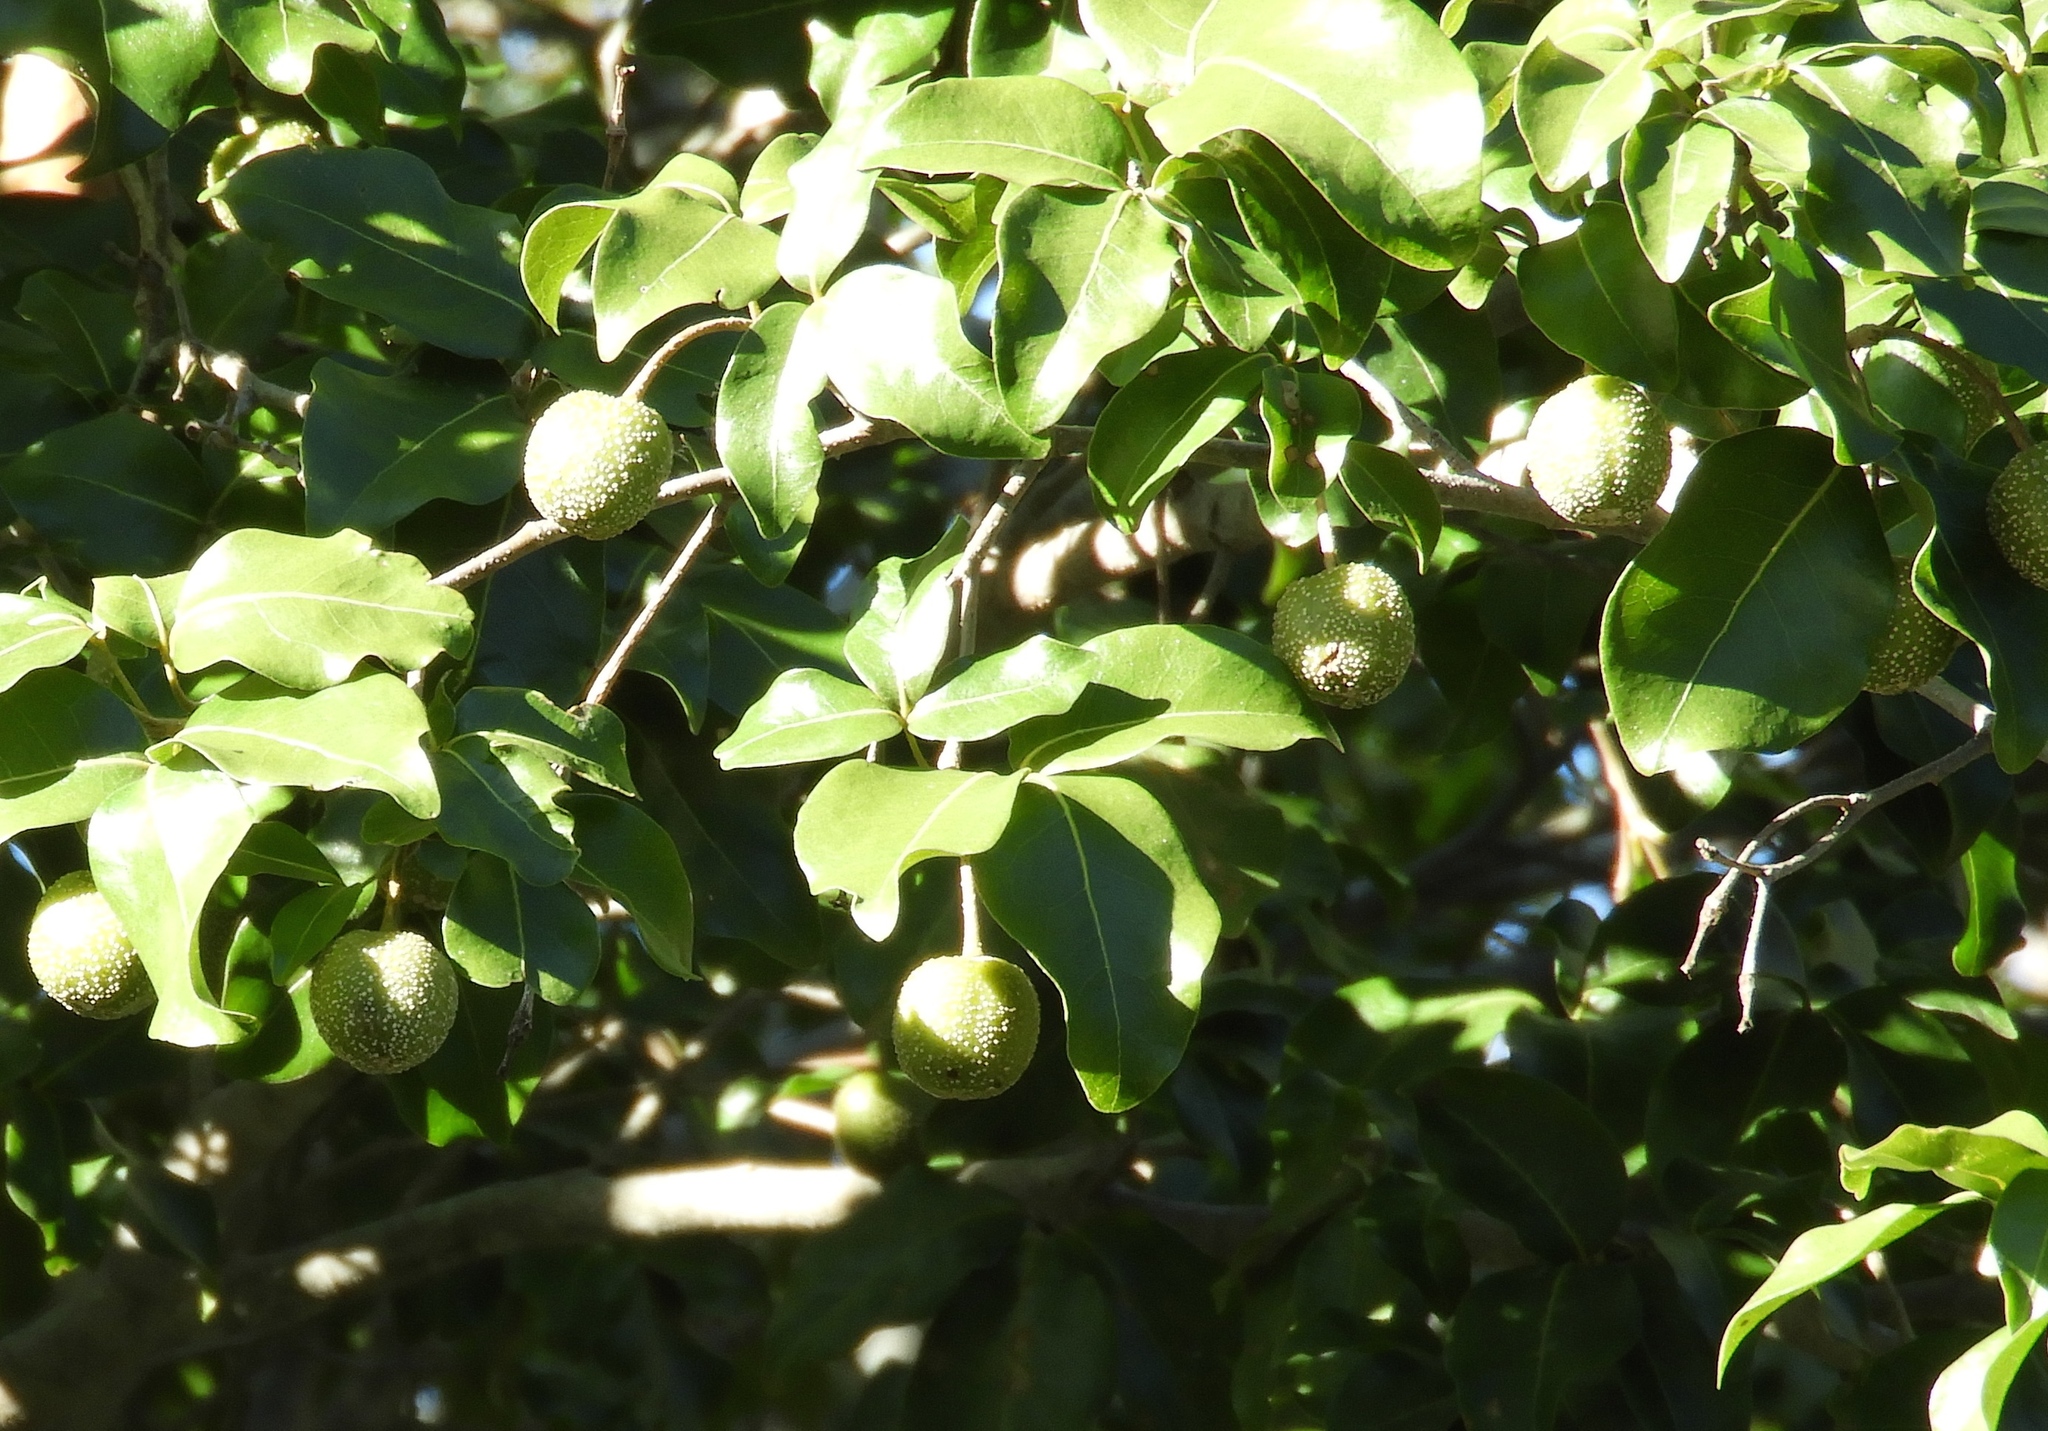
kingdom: Plantae
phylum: Tracheophyta
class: Magnoliopsida
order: Malpighiales
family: Picrodendraceae
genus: Piranhea
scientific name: Piranhea mexicana
